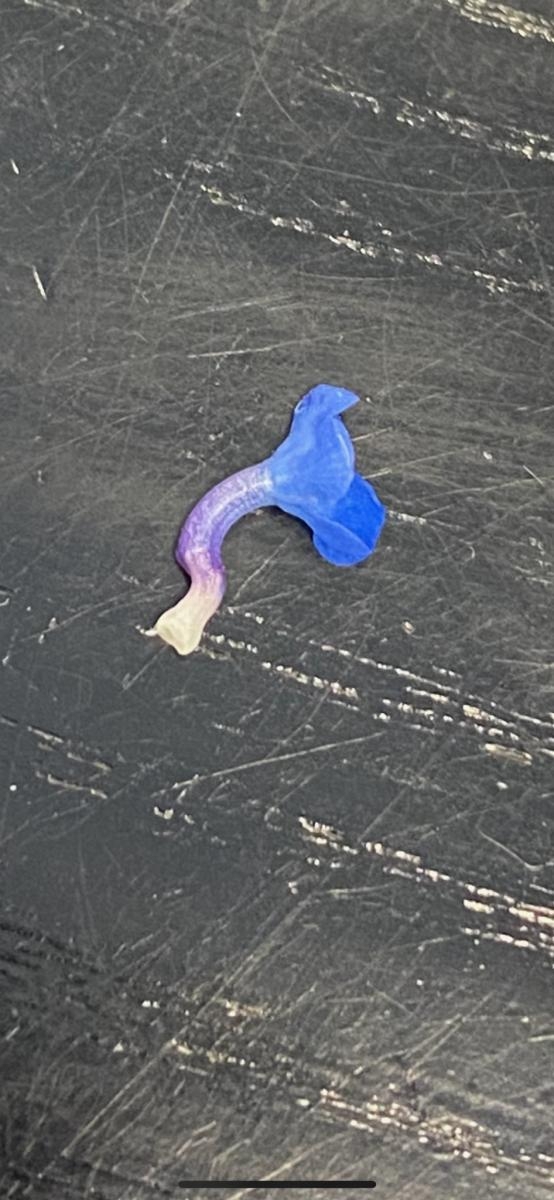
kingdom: Plantae
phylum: Tracheophyta
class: Magnoliopsida
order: Boraginales
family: Boraginaceae
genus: Lycopsis
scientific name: Lycopsis arvensis
